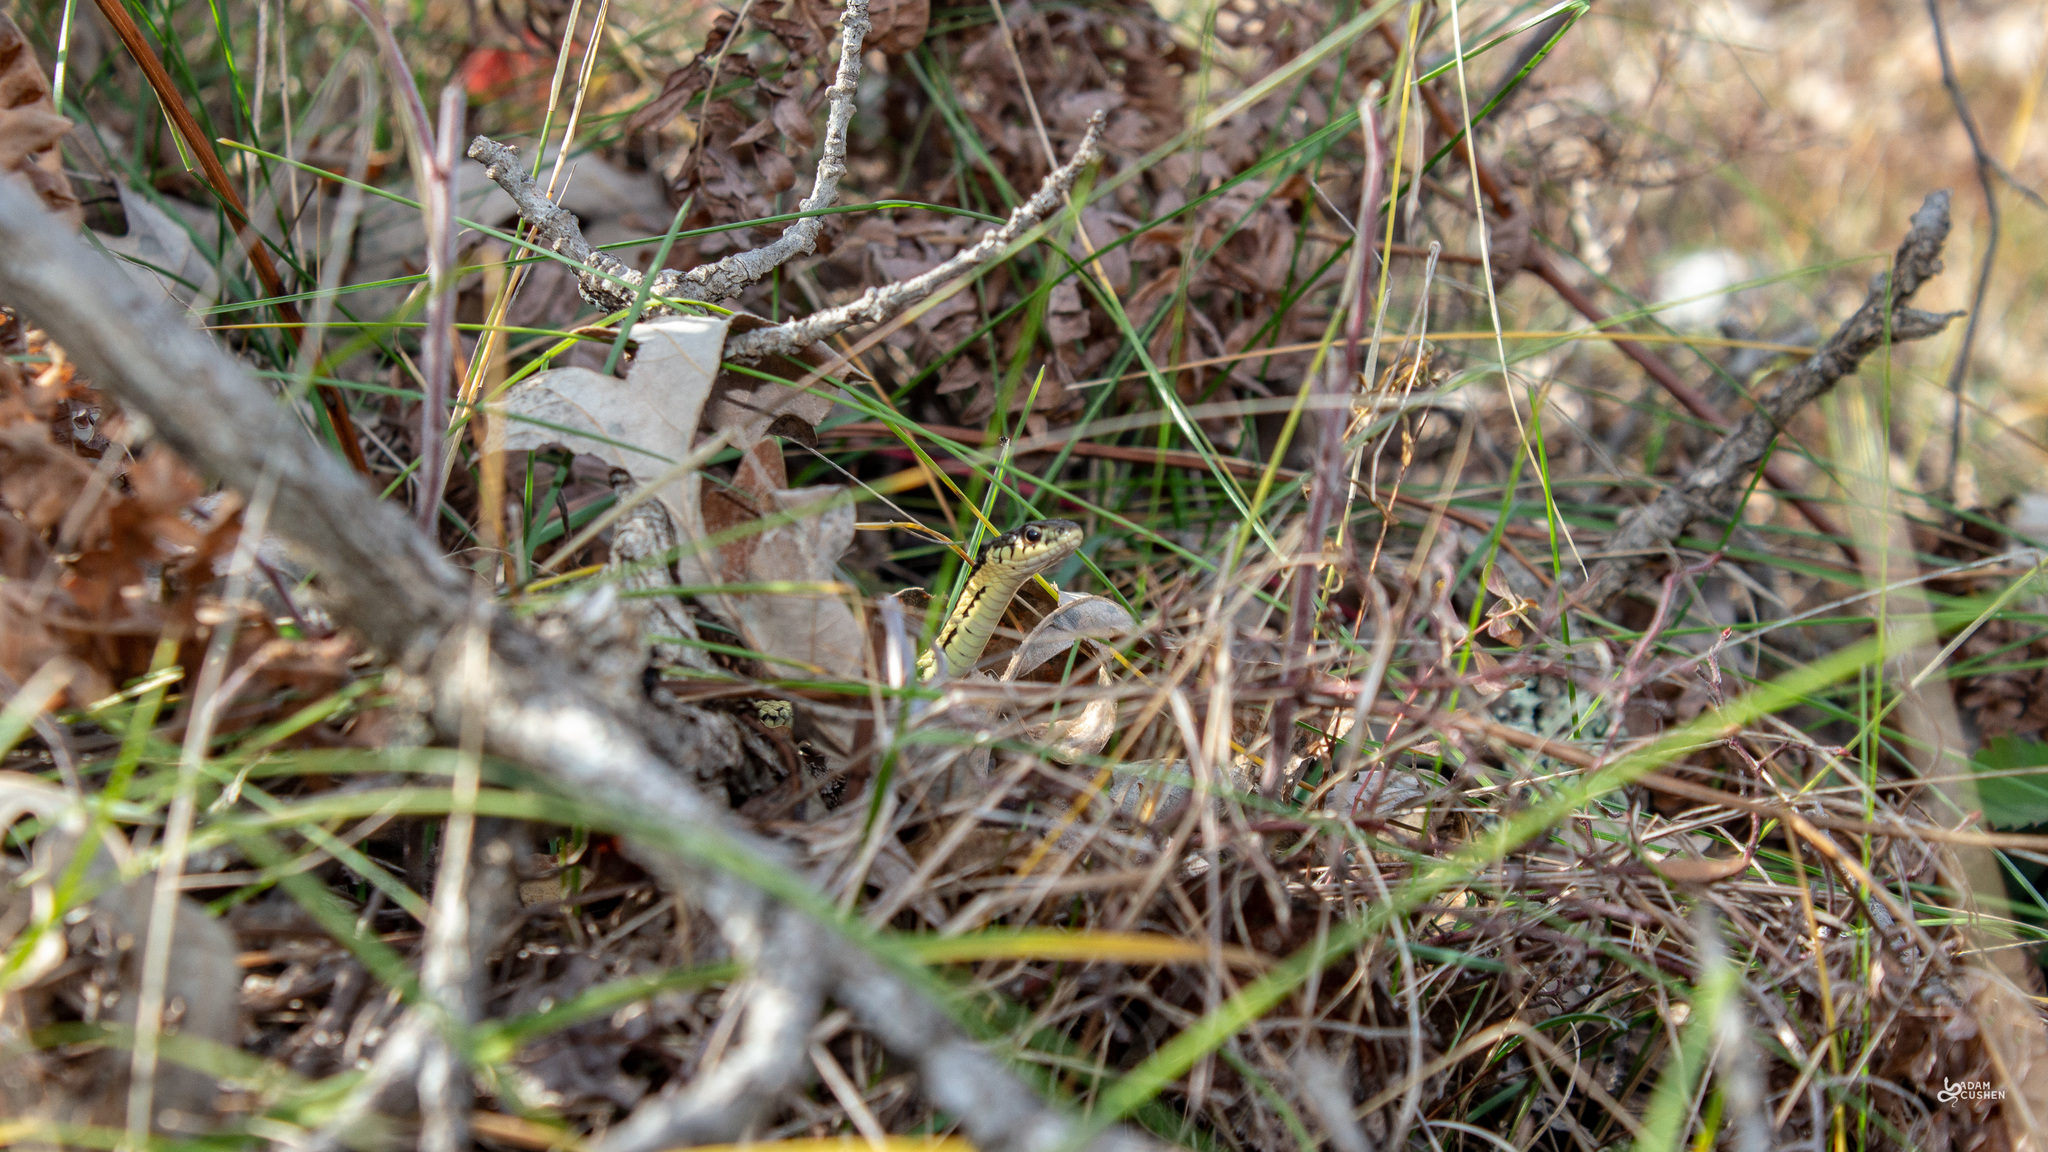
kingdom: Animalia
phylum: Chordata
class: Squamata
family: Colubridae
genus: Thamnophis
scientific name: Thamnophis sirtalis
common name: Common garter snake
